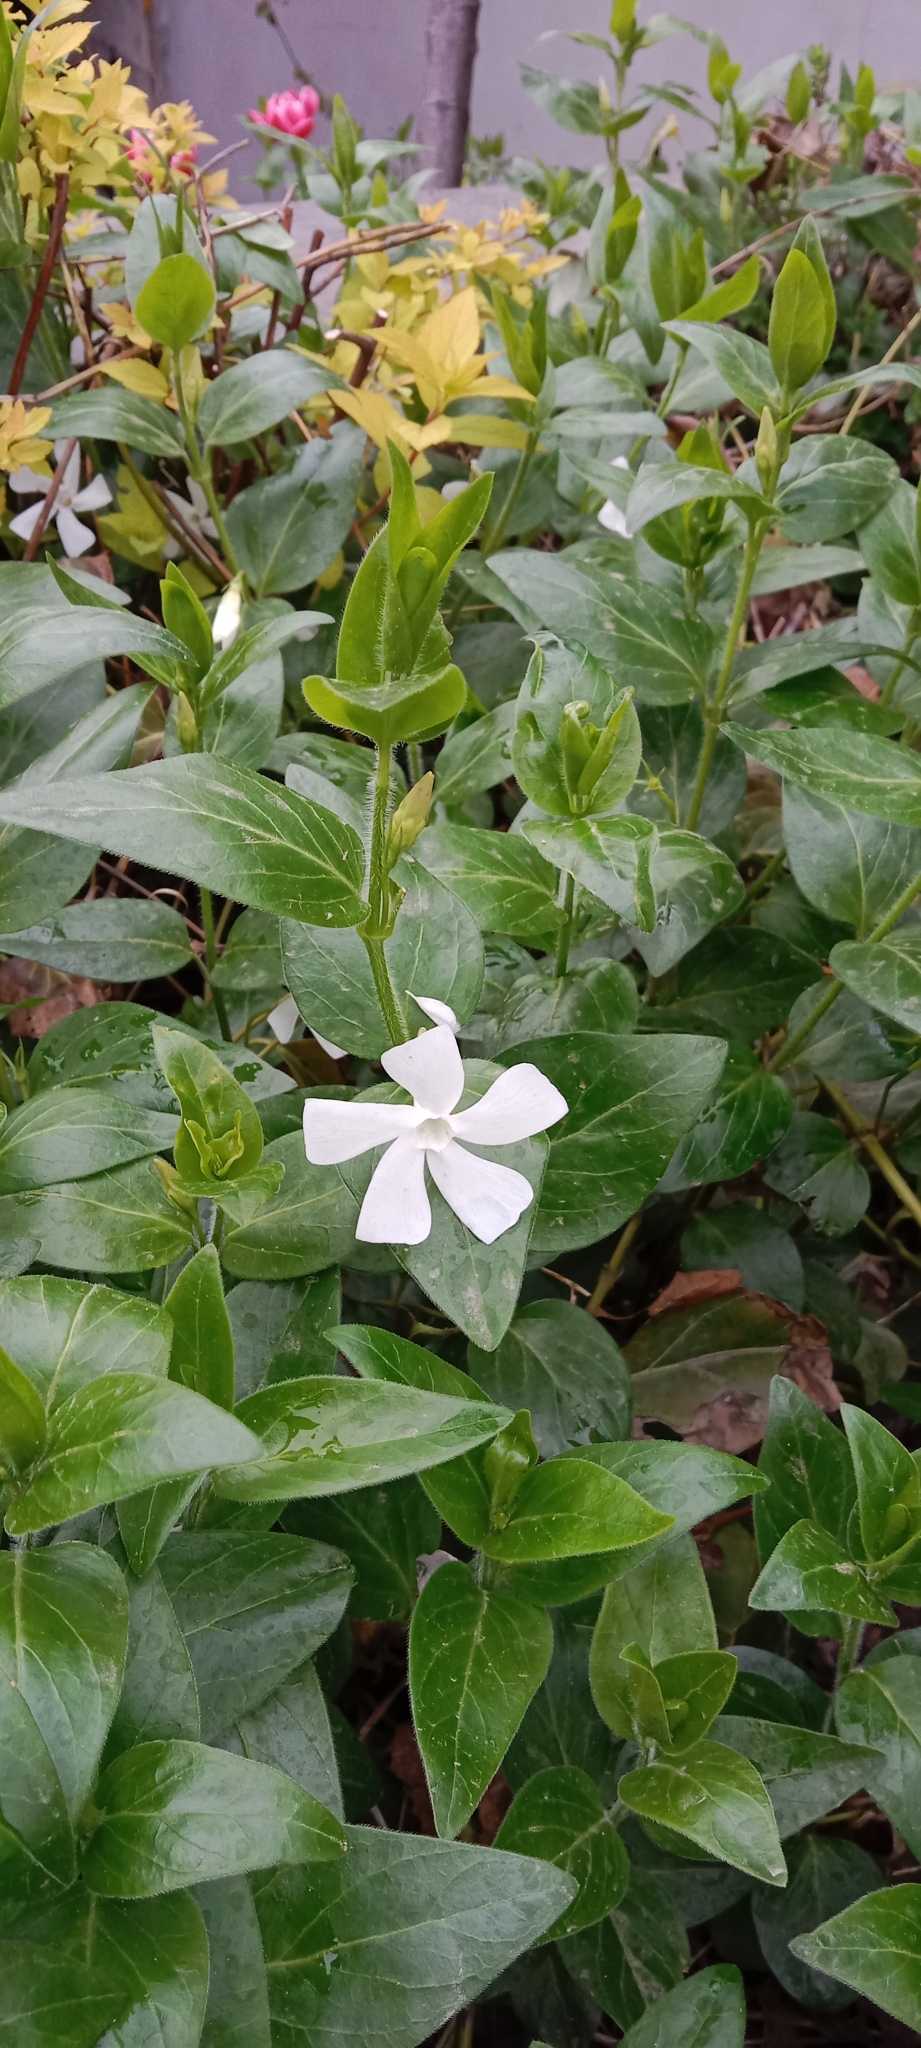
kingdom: Plantae
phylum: Tracheophyta
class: Magnoliopsida
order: Gentianales
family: Apocynaceae
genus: Vinca
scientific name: Vinca major
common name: Greater periwinkle
